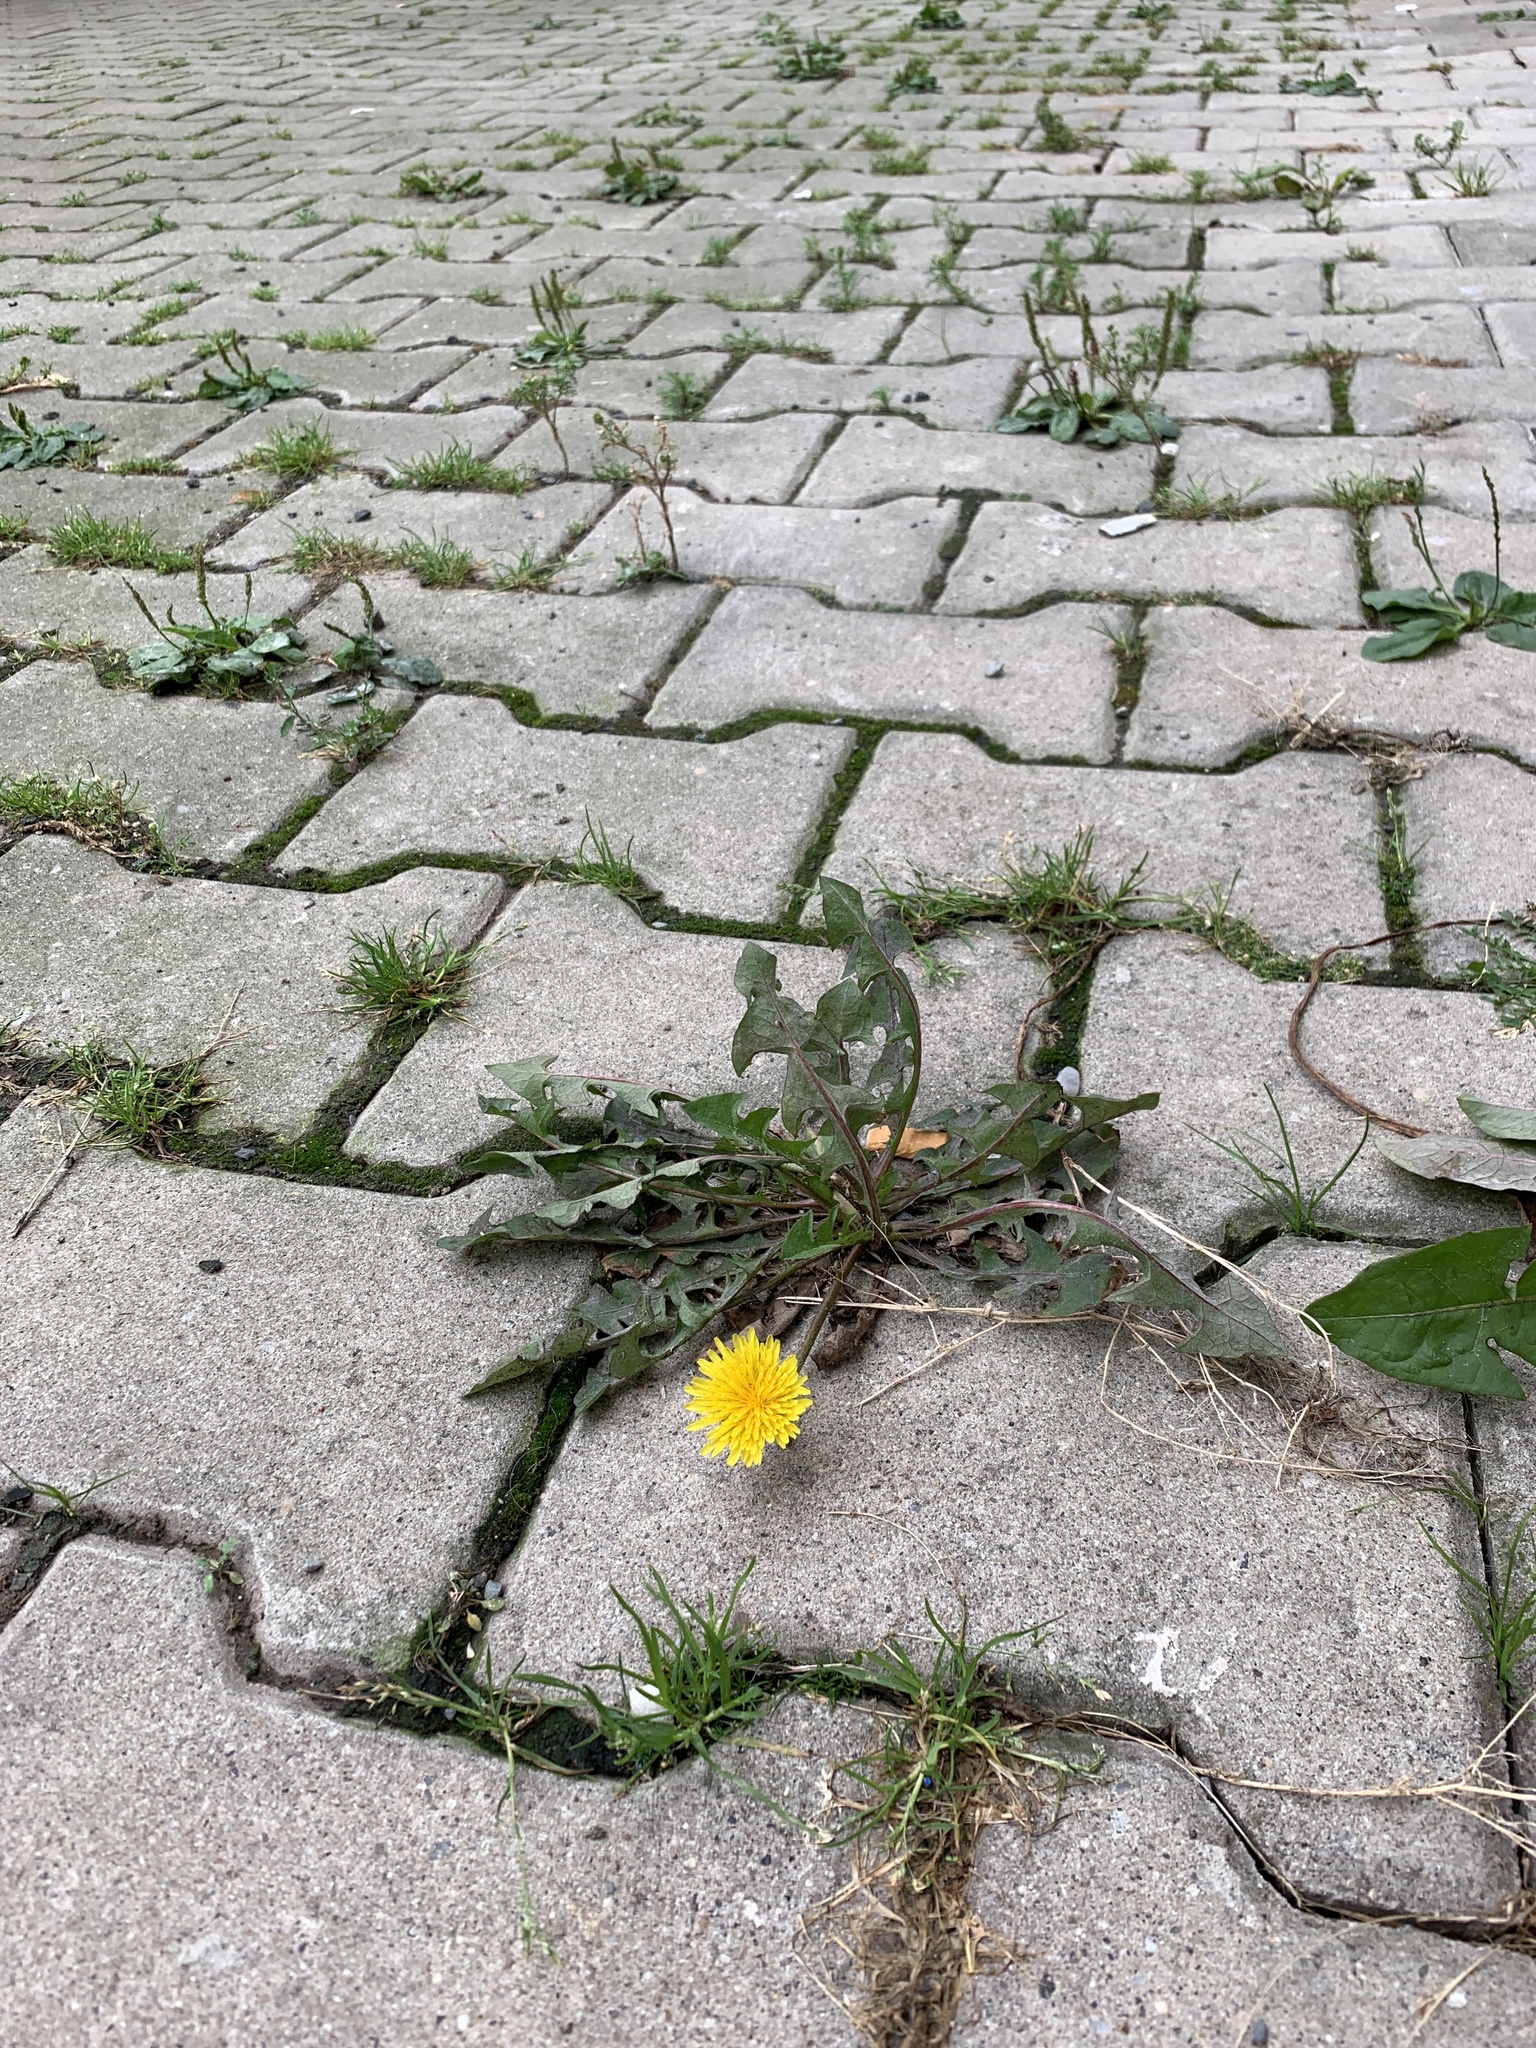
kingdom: Plantae
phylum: Tracheophyta
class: Magnoliopsida
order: Asterales
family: Asteraceae
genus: Taraxacum
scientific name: Taraxacum officinale
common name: Common dandelion
